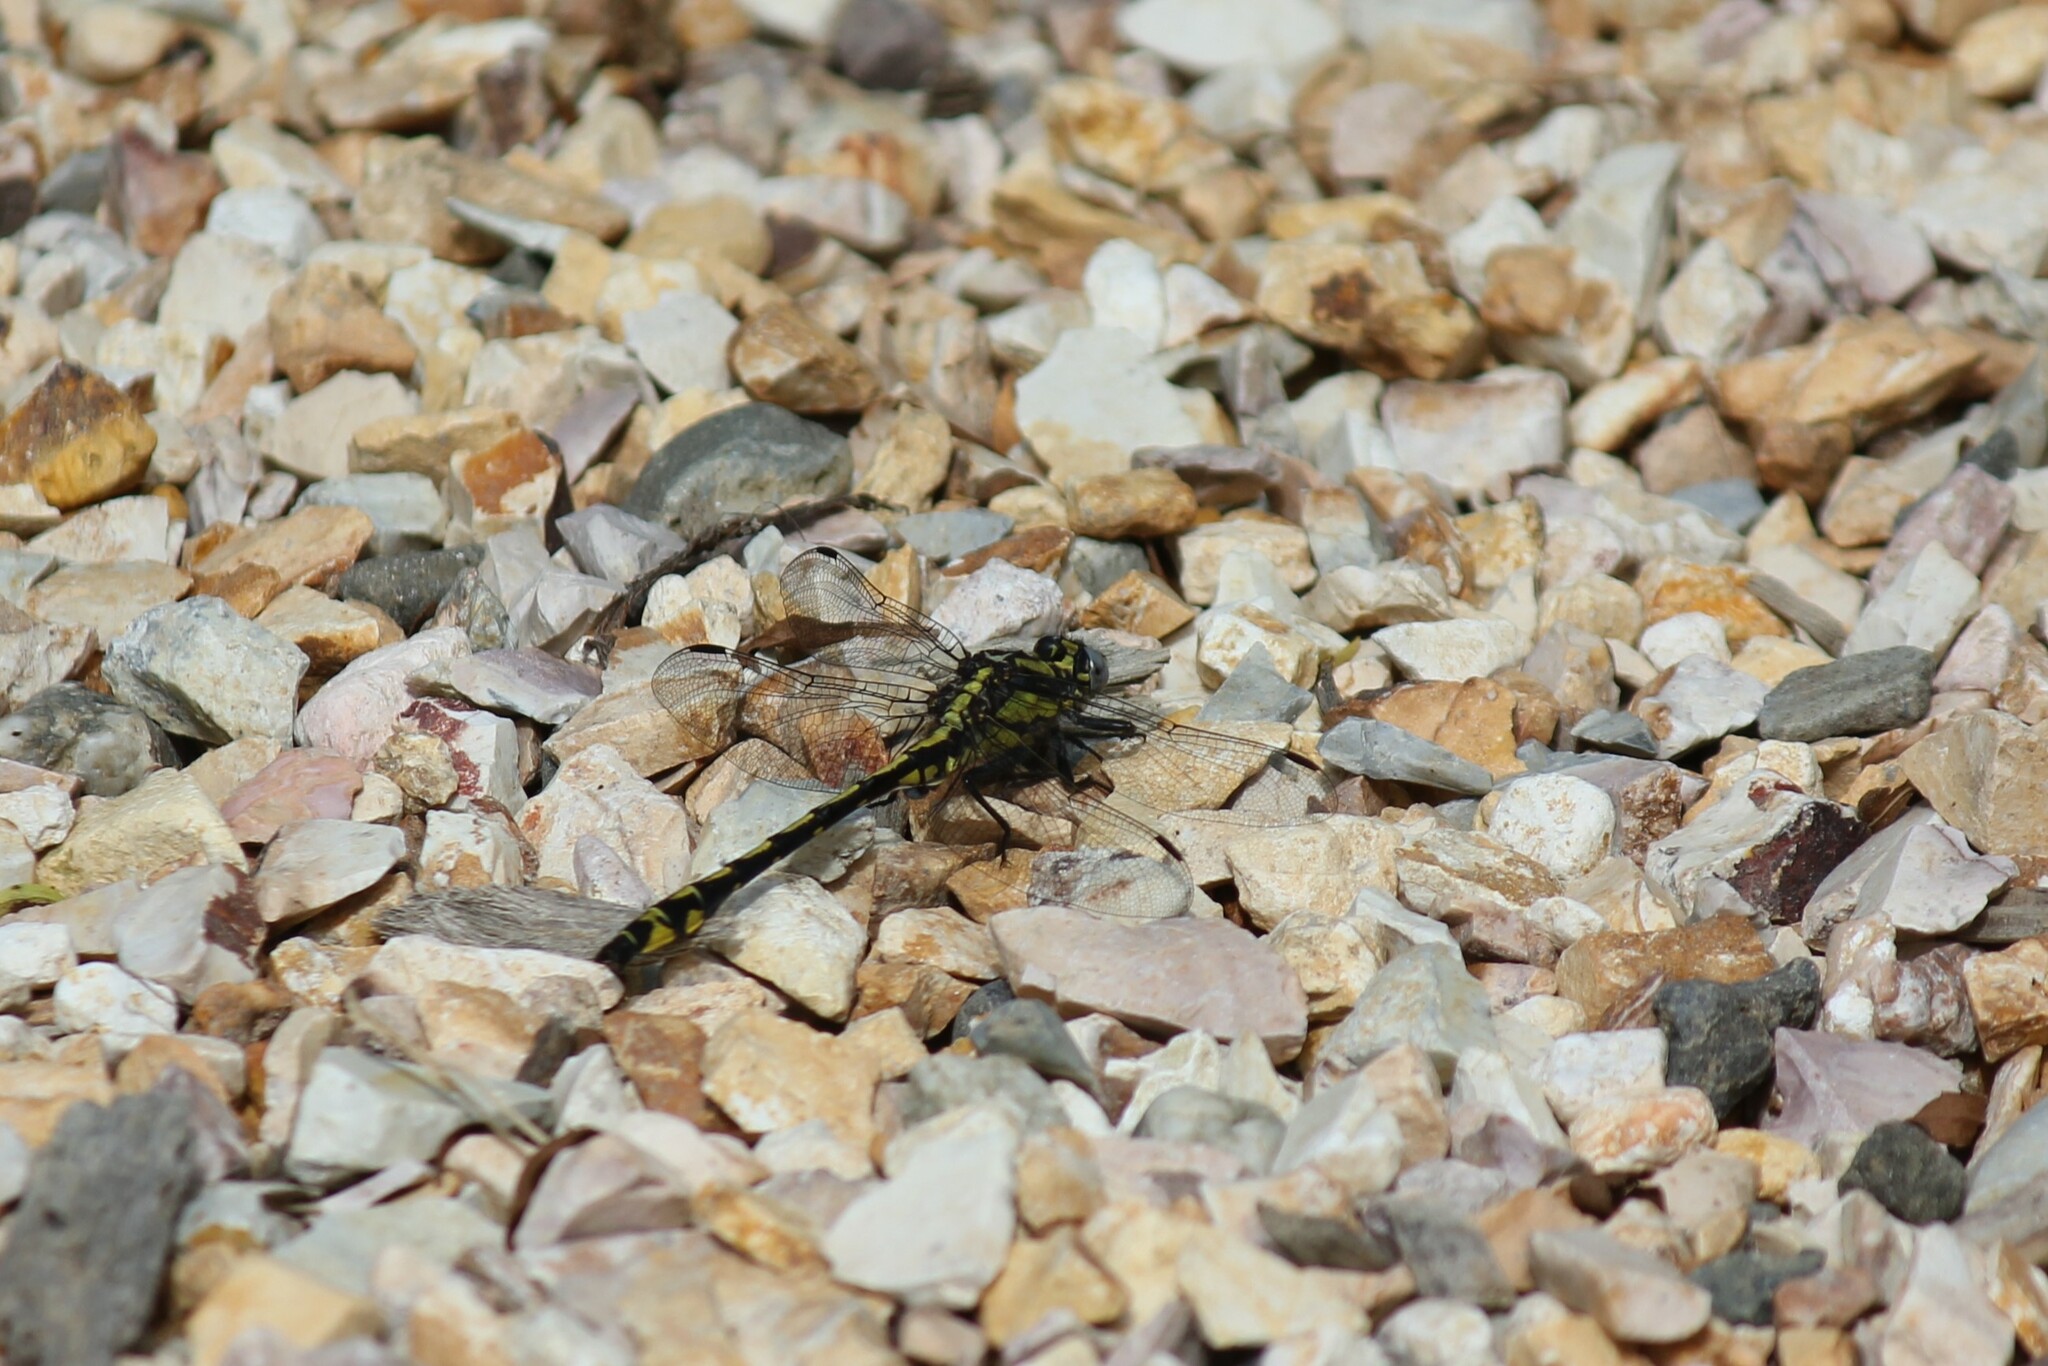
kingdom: Animalia
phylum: Arthropoda
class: Insecta
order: Odonata
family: Gomphidae
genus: Phanogomphus
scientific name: Phanogomphus kurilis
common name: Pacific clubtail
